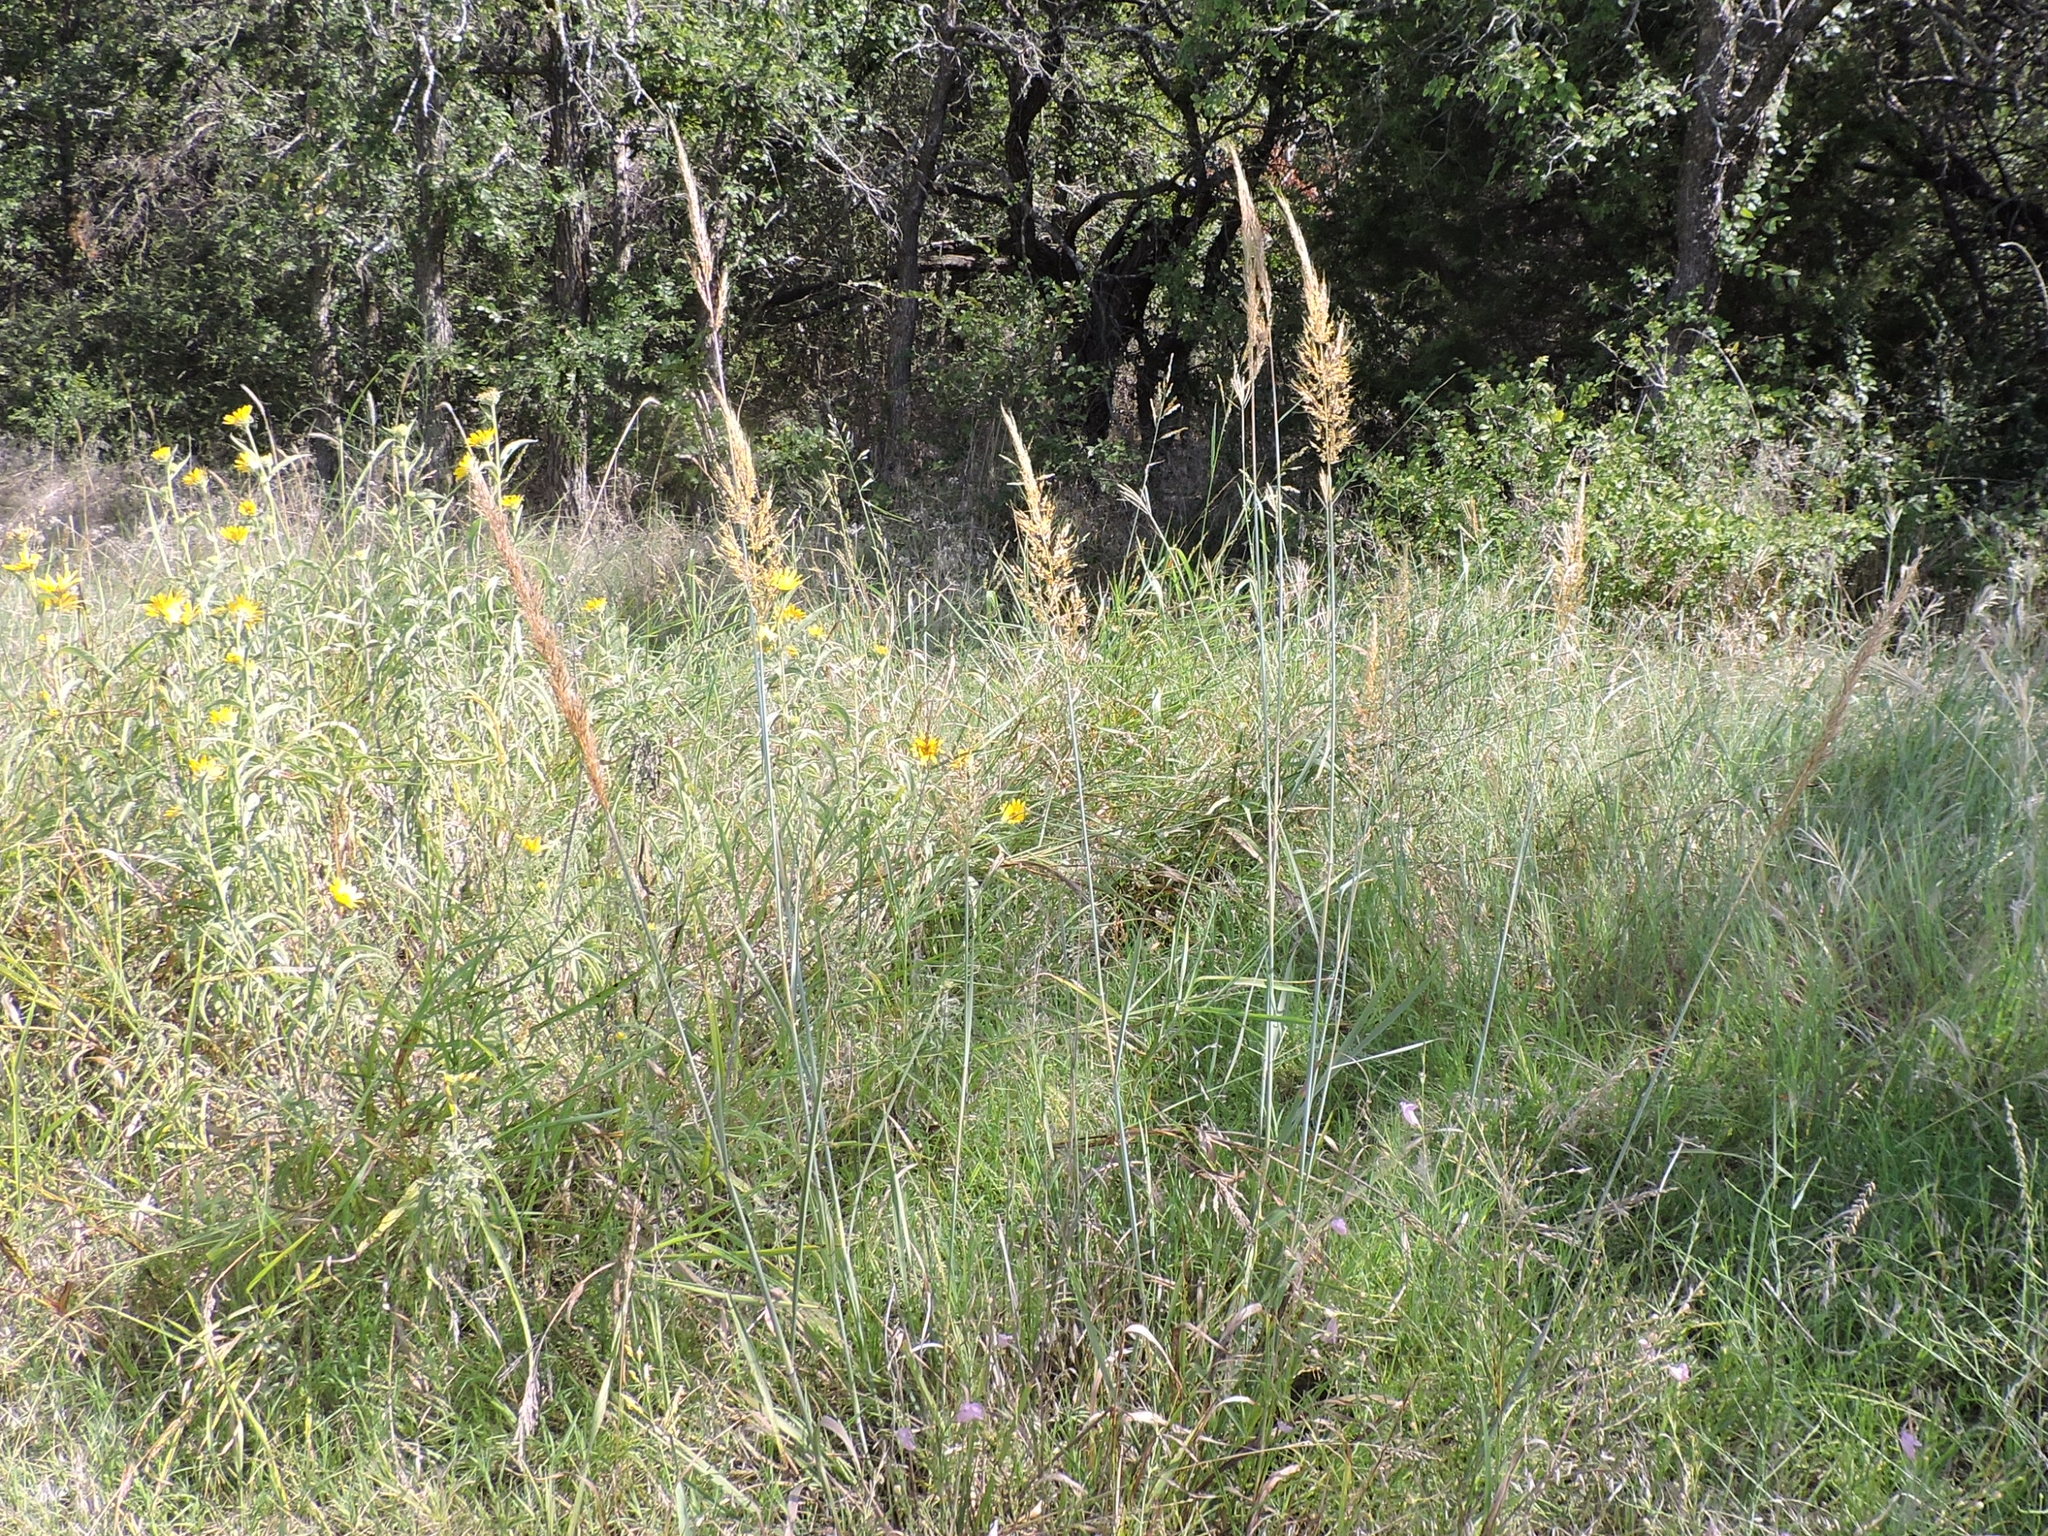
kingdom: Plantae
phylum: Tracheophyta
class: Liliopsida
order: Poales
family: Poaceae
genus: Sorghastrum
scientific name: Sorghastrum nutans
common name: Indian grass
